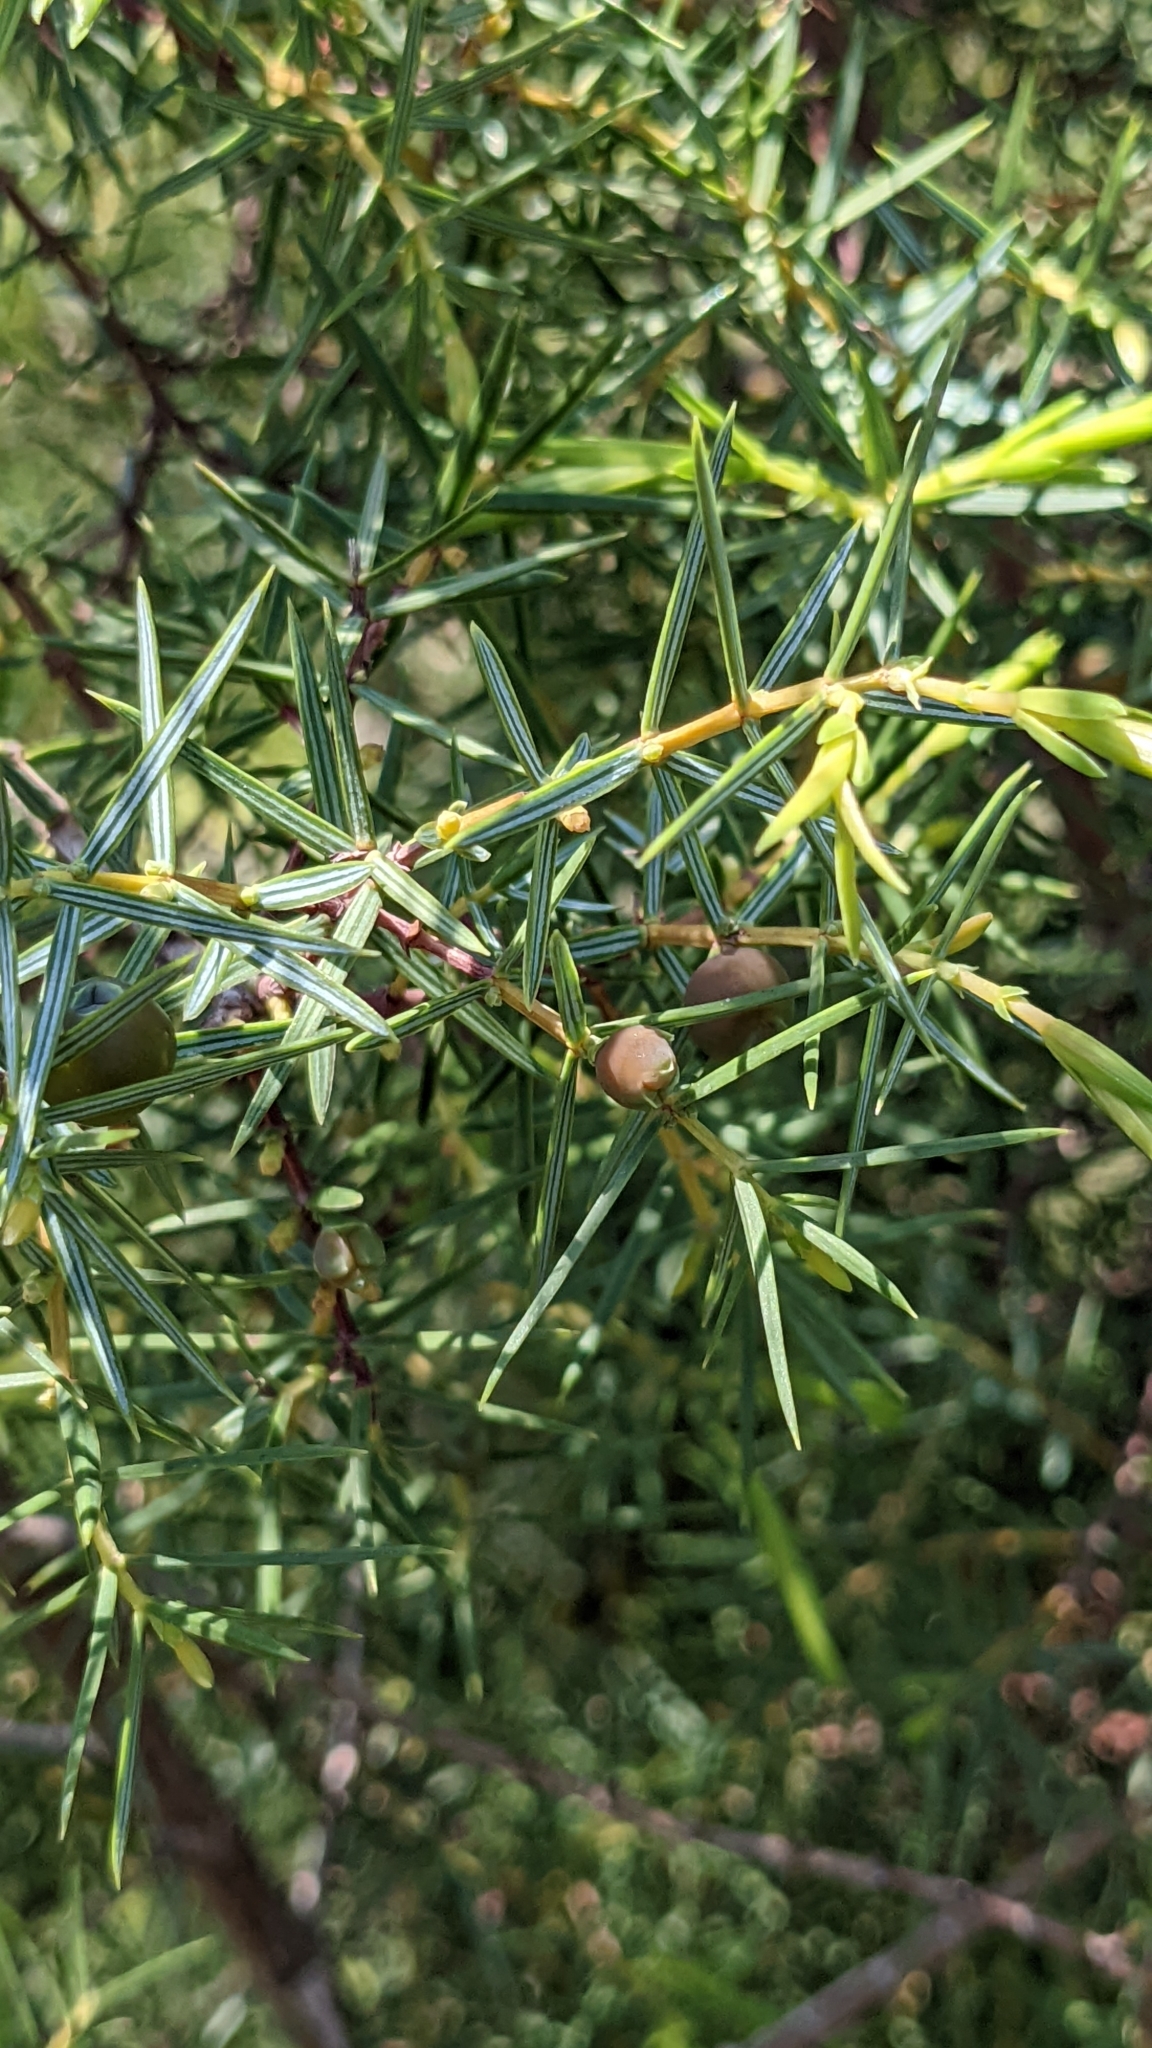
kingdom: Plantae
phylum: Tracheophyta
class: Pinopsida
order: Pinales
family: Cupressaceae
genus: Juniperus
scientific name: Juniperus oxycedrus
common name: Prickly juniper
